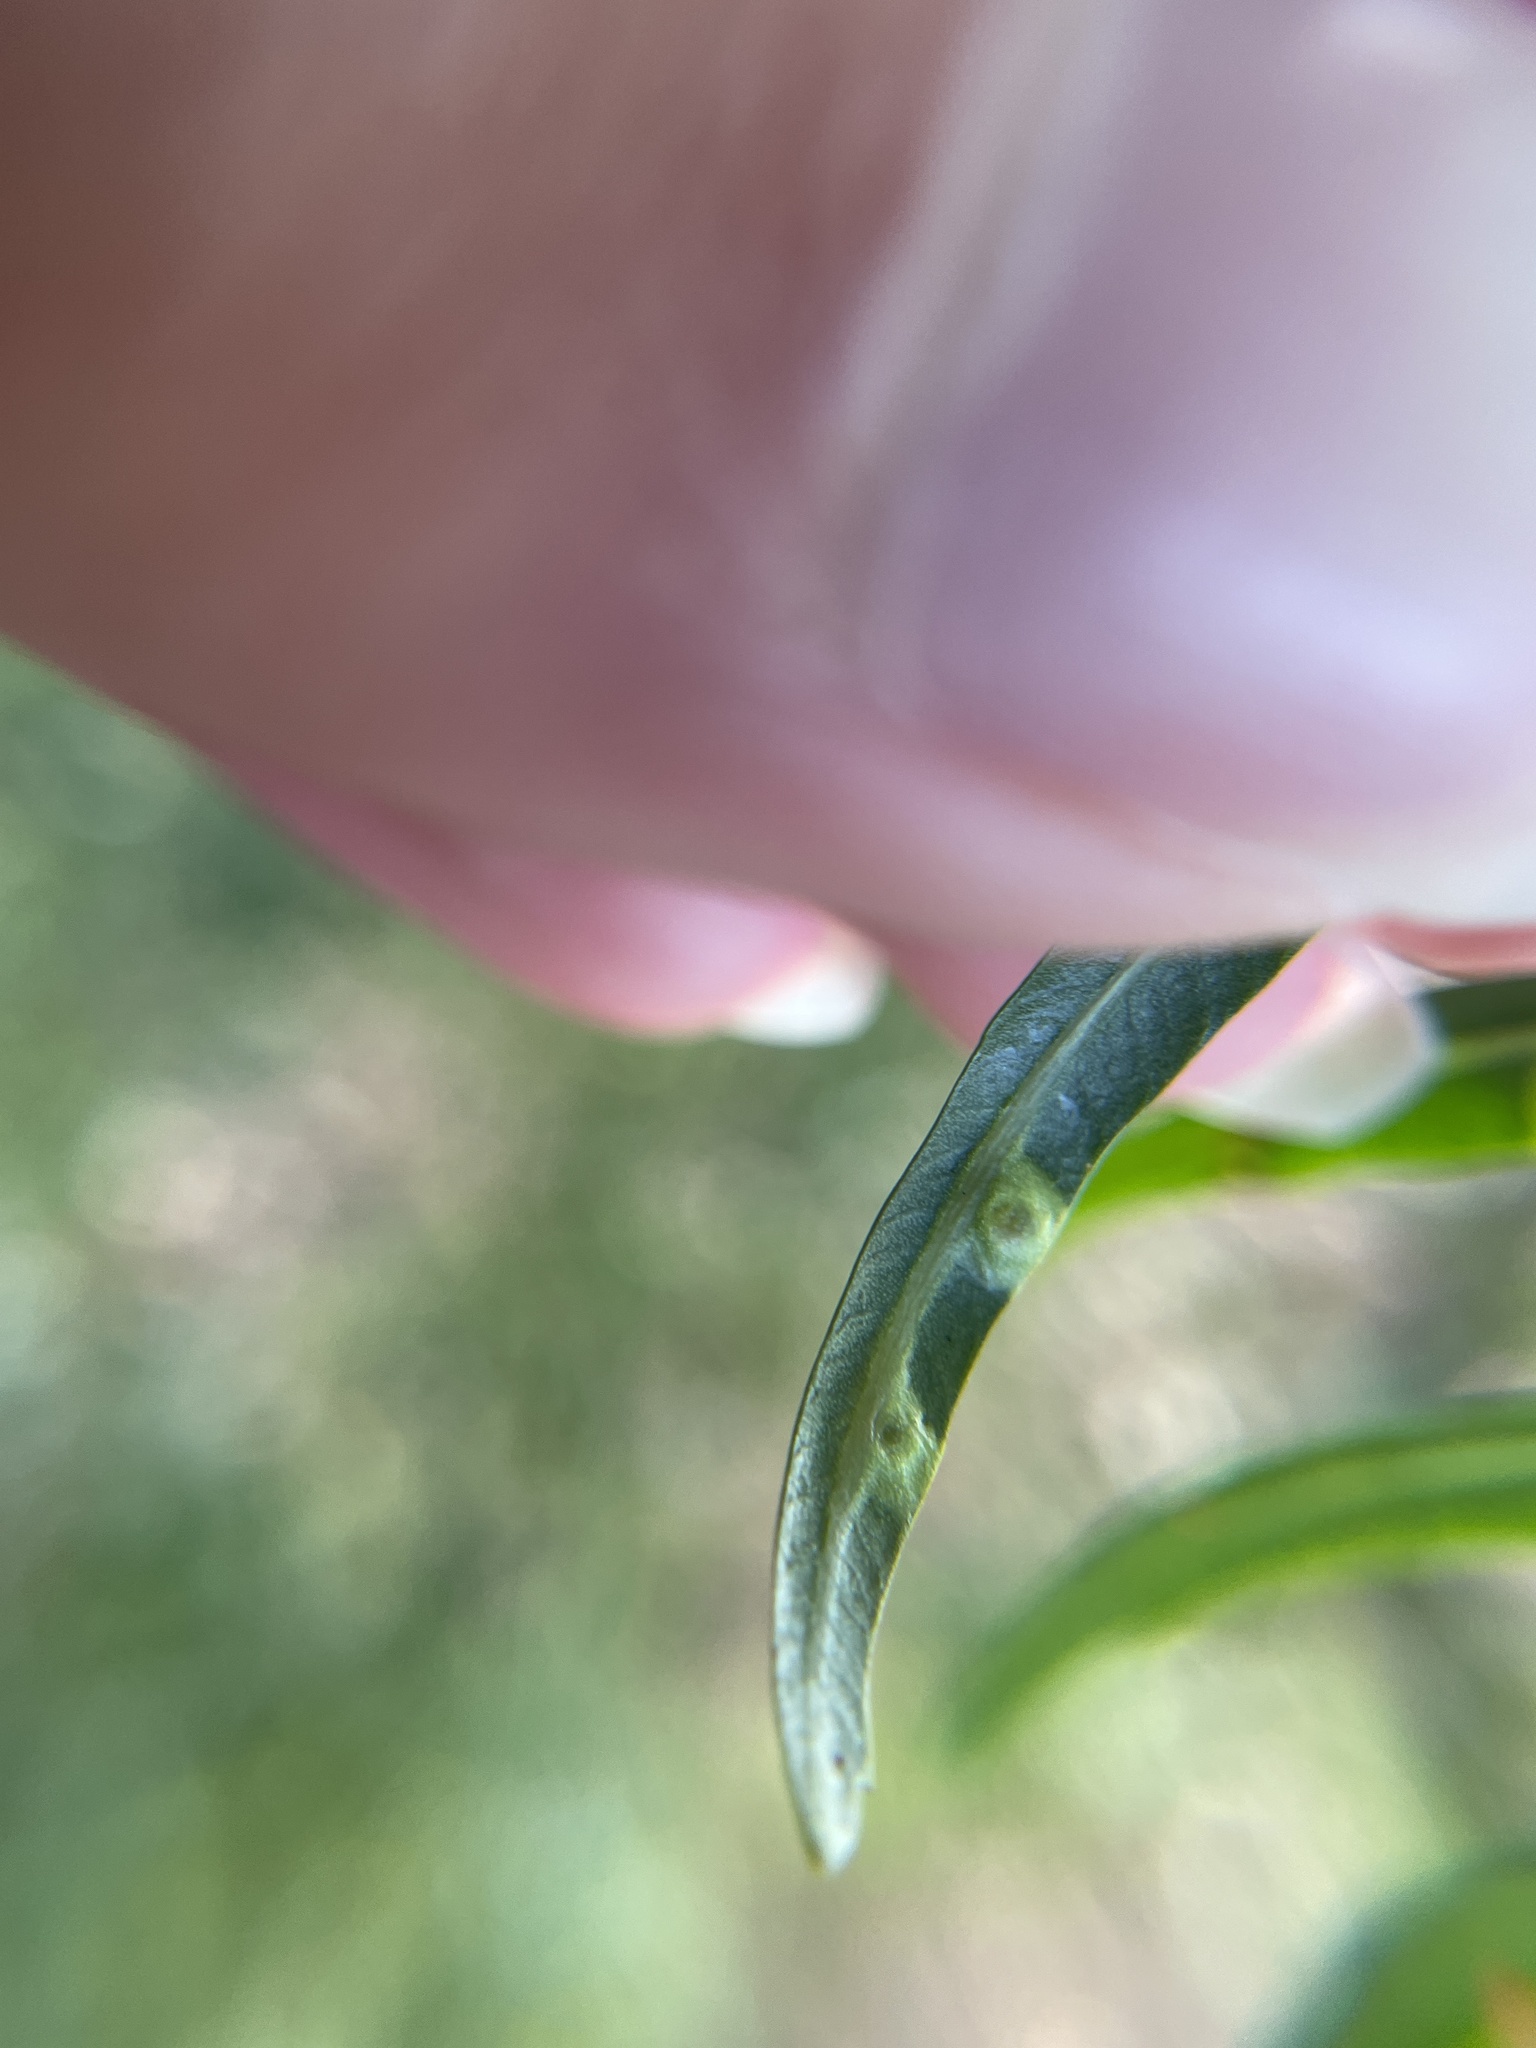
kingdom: Animalia
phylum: Arthropoda
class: Insecta
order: Hemiptera
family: Calophyidae
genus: Calophya
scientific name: Calophya schini
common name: Pepper tree psyllid
